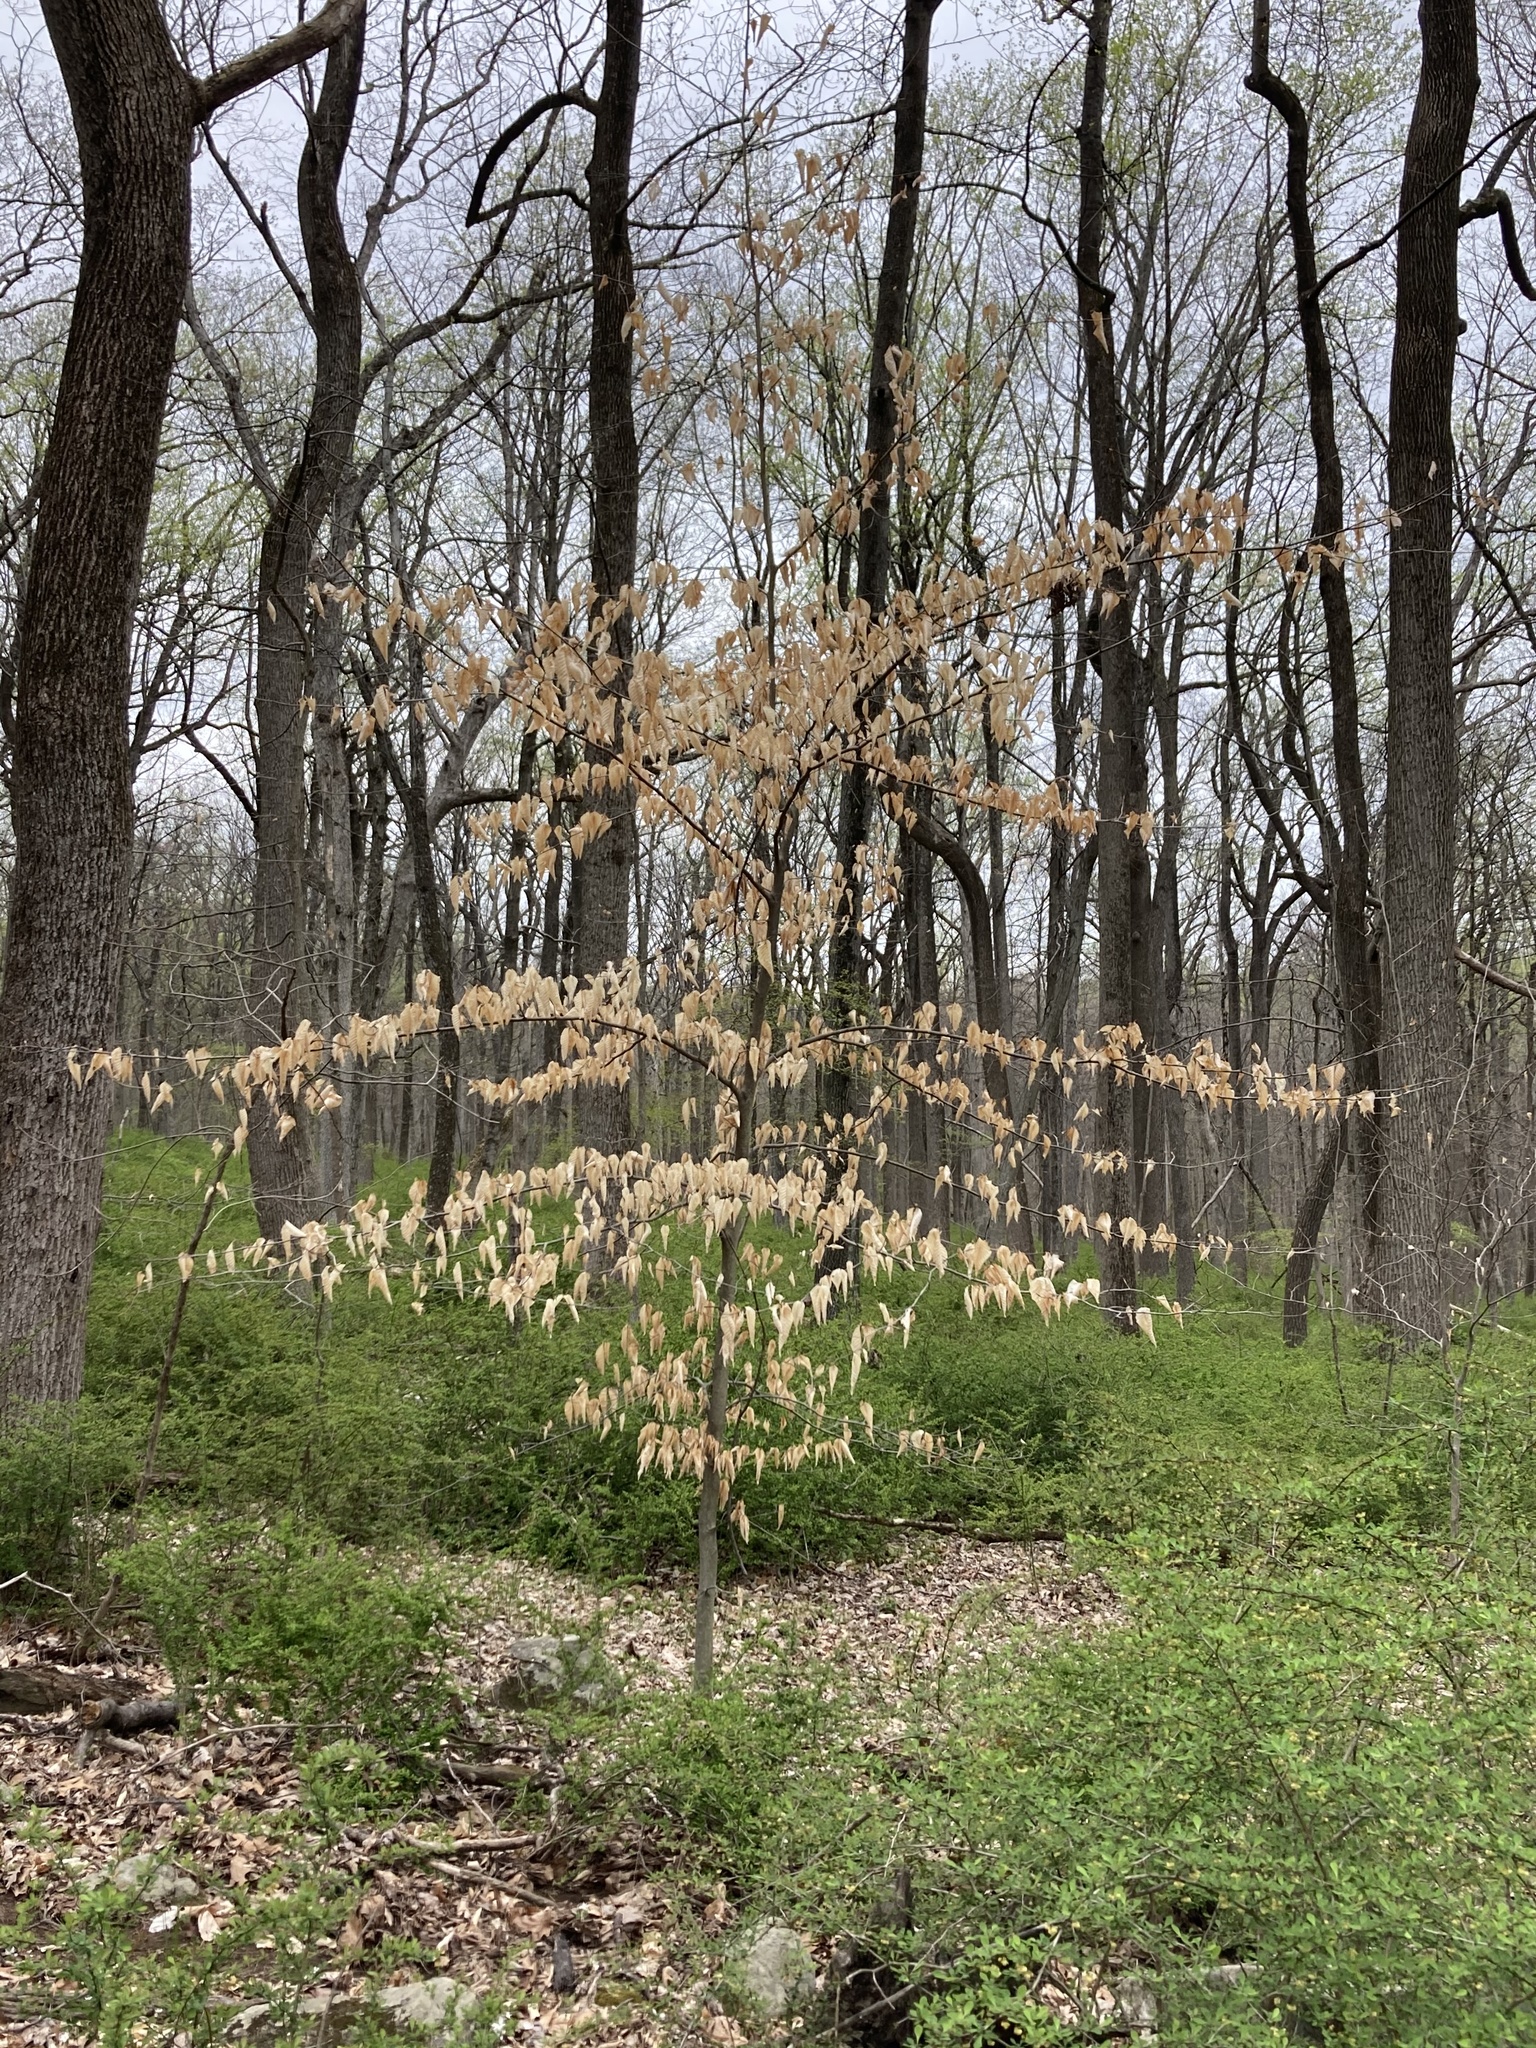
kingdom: Plantae
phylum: Tracheophyta
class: Magnoliopsida
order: Fagales
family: Fagaceae
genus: Fagus
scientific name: Fagus grandifolia
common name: American beech
